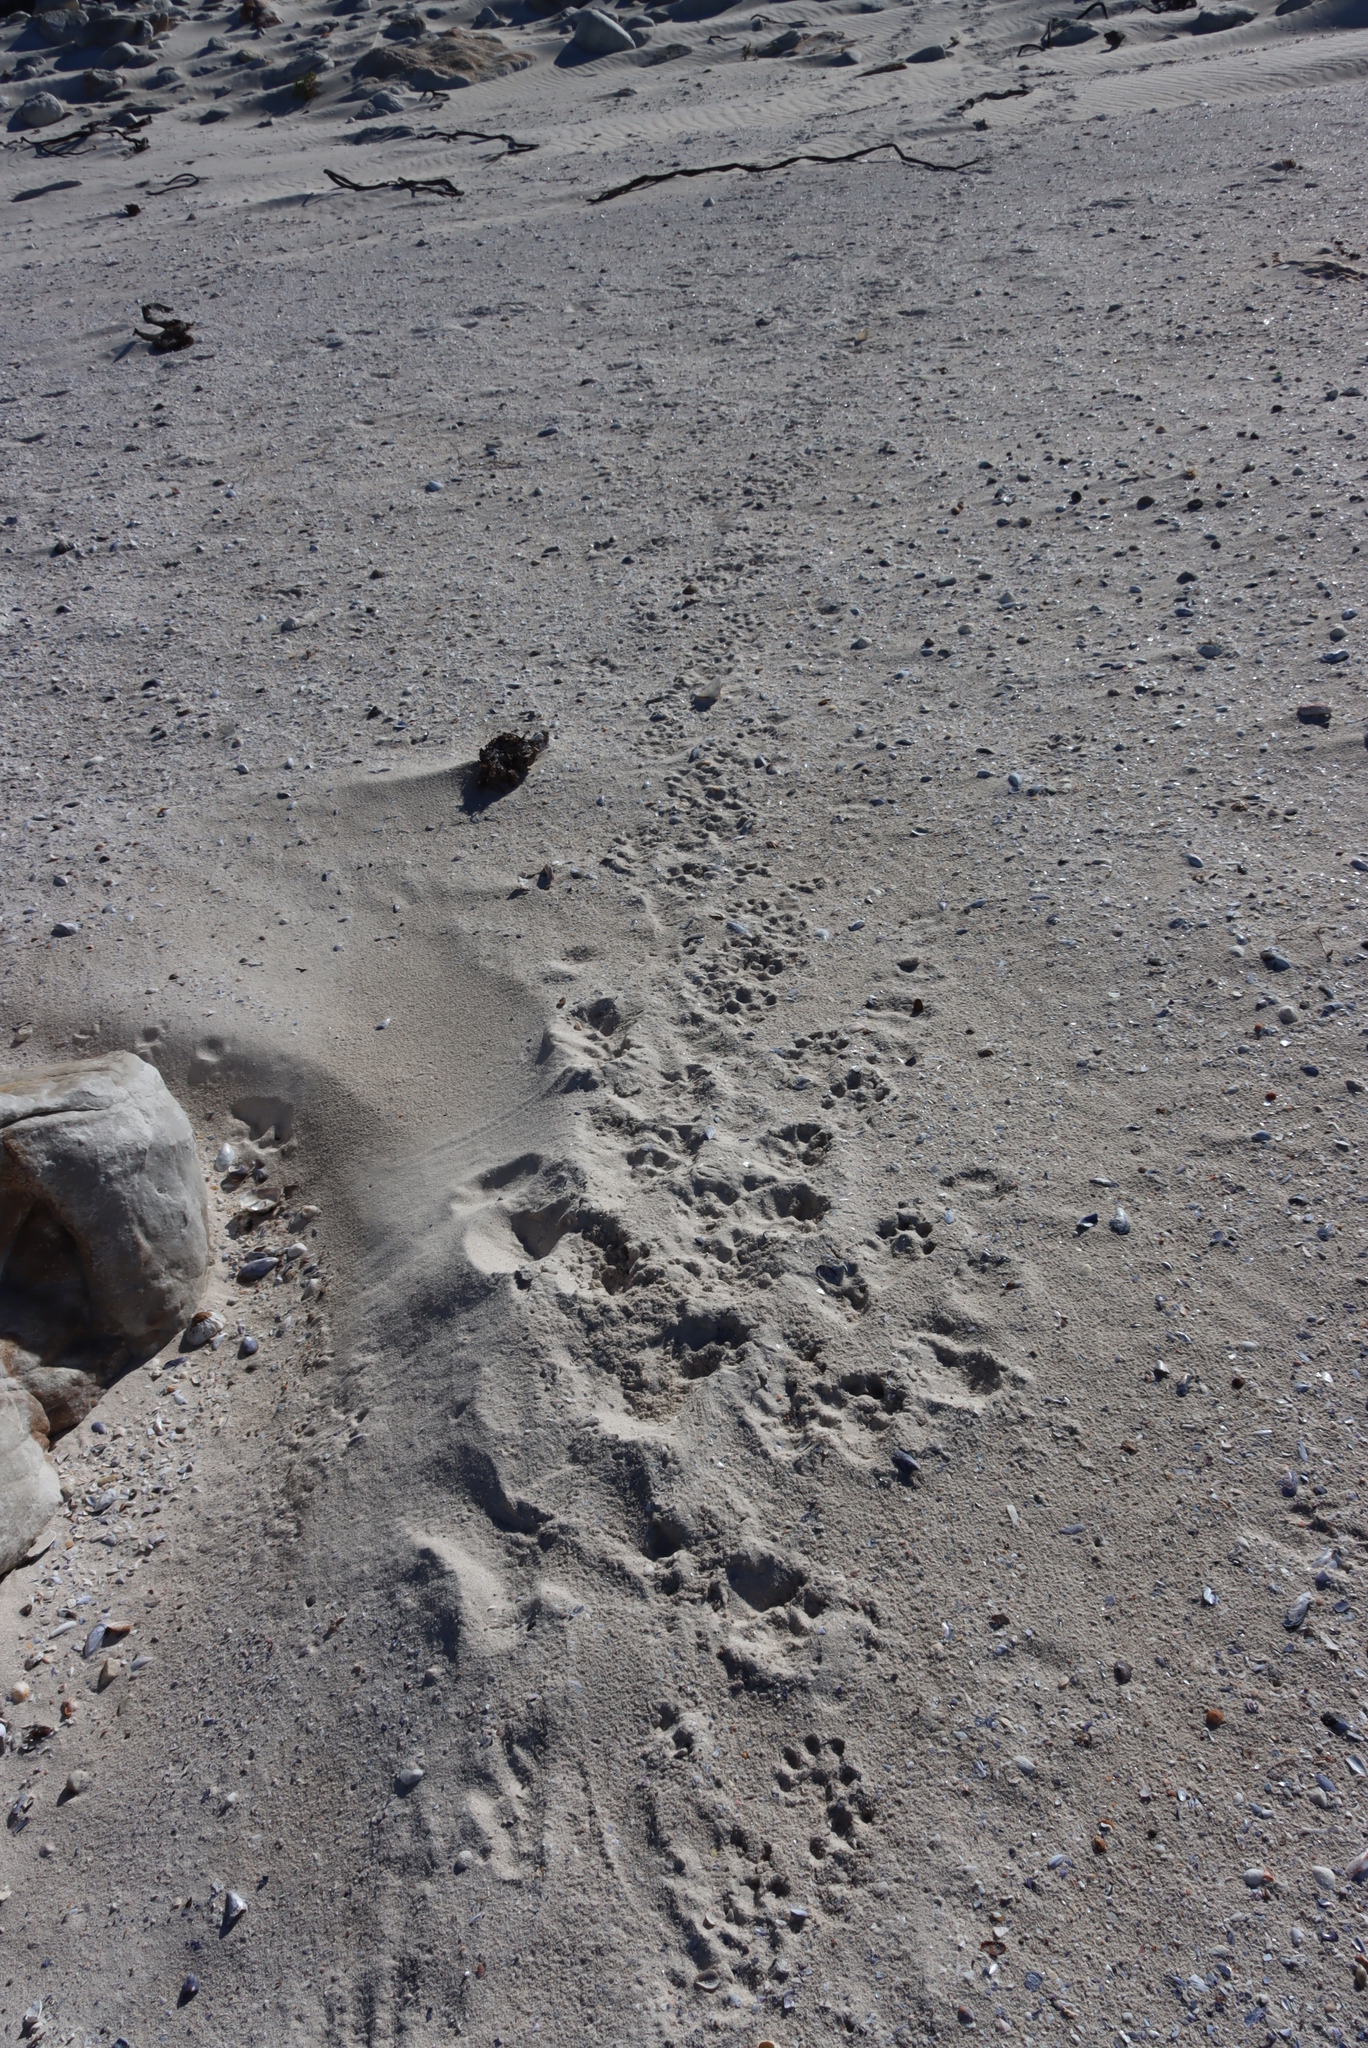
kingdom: Animalia
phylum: Chordata
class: Mammalia
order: Carnivora
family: Mustelidae
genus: Aonyx
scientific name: Aonyx capensis
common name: African clawless otter
